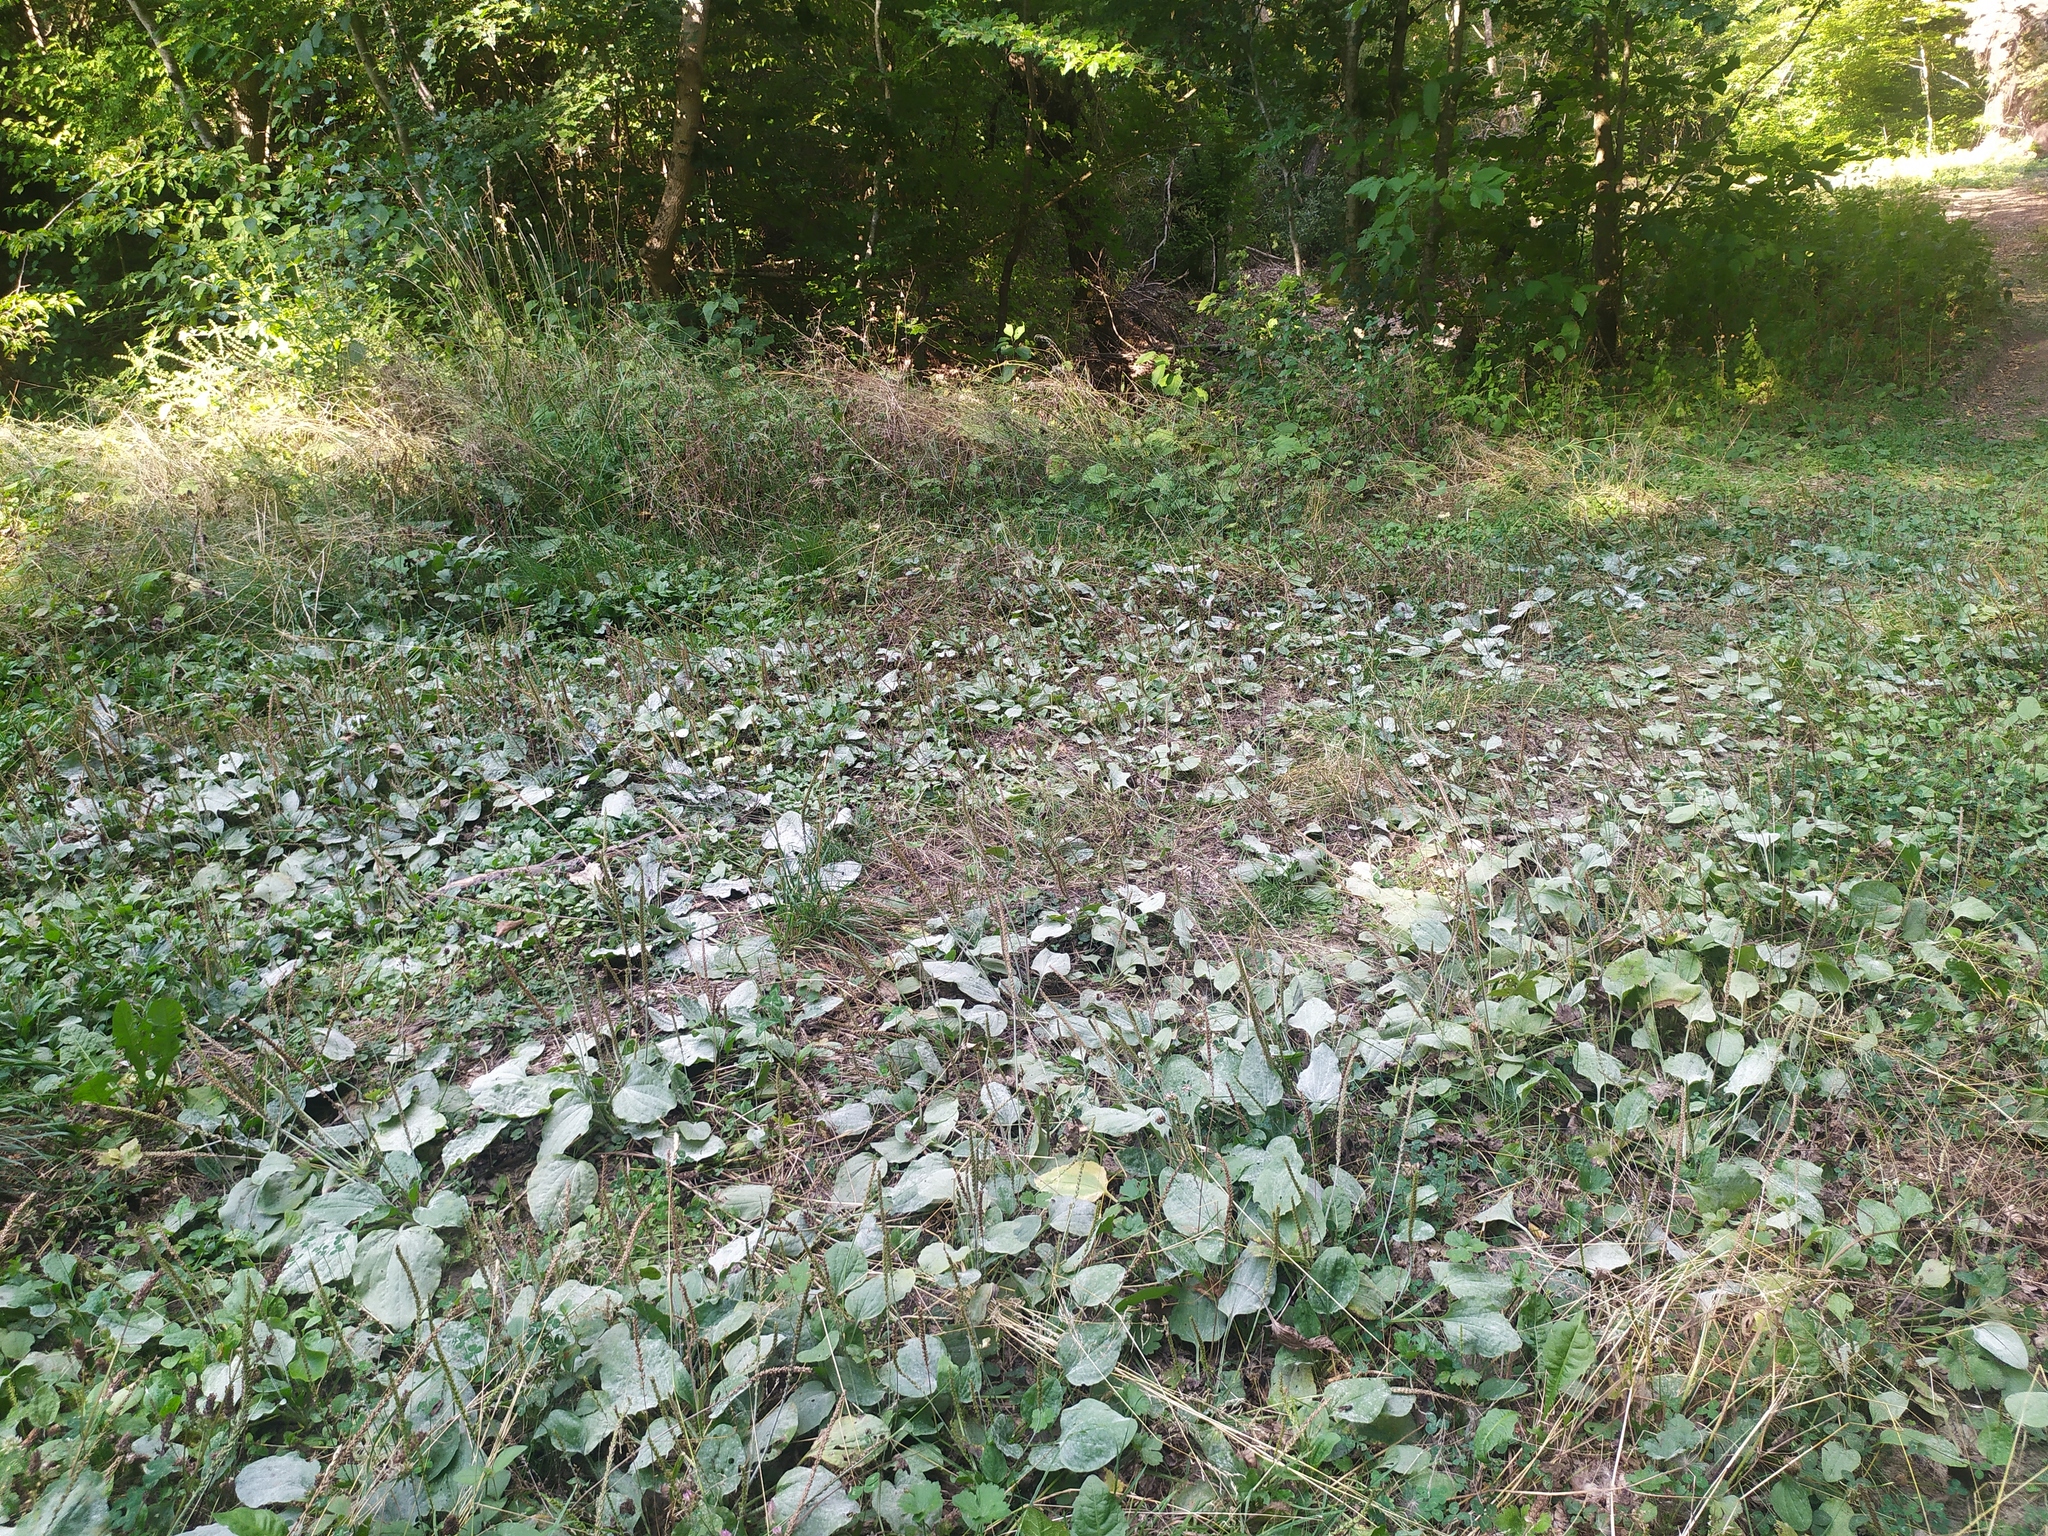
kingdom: Plantae
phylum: Tracheophyta
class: Magnoliopsida
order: Lamiales
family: Plantaginaceae
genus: Plantago
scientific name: Plantago major
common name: Common plantain
